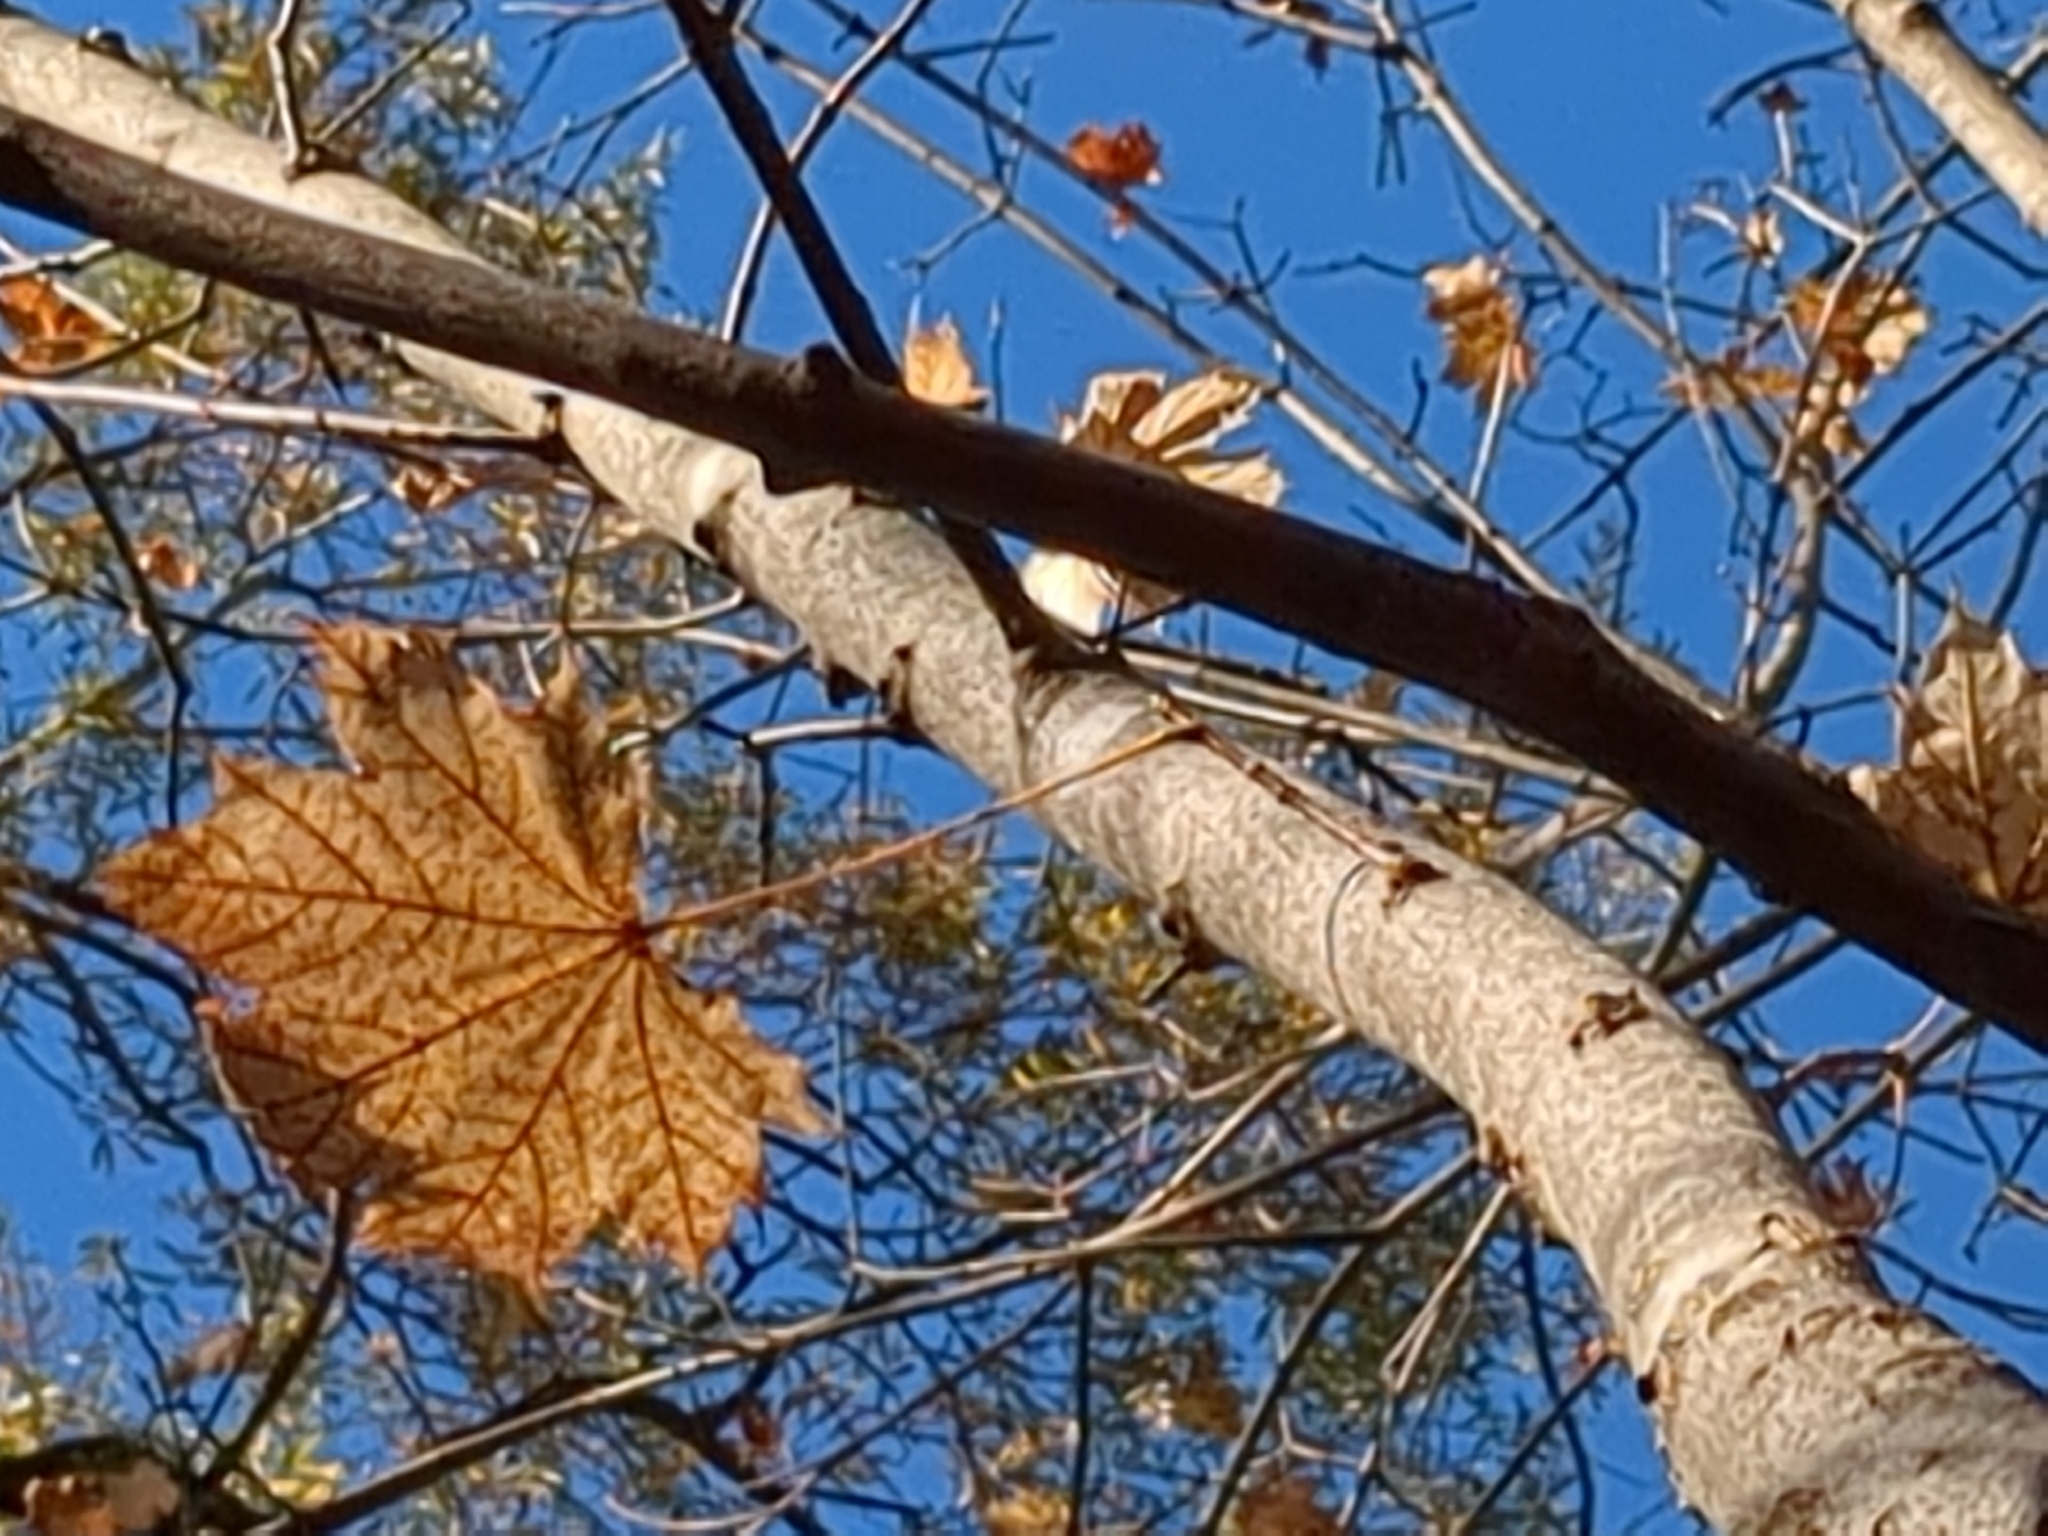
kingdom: Plantae
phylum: Tracheophyta
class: Magnoliopsida
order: Sapindales
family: Sapindaceae
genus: Acer
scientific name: Acer platanoides
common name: Norway maple
